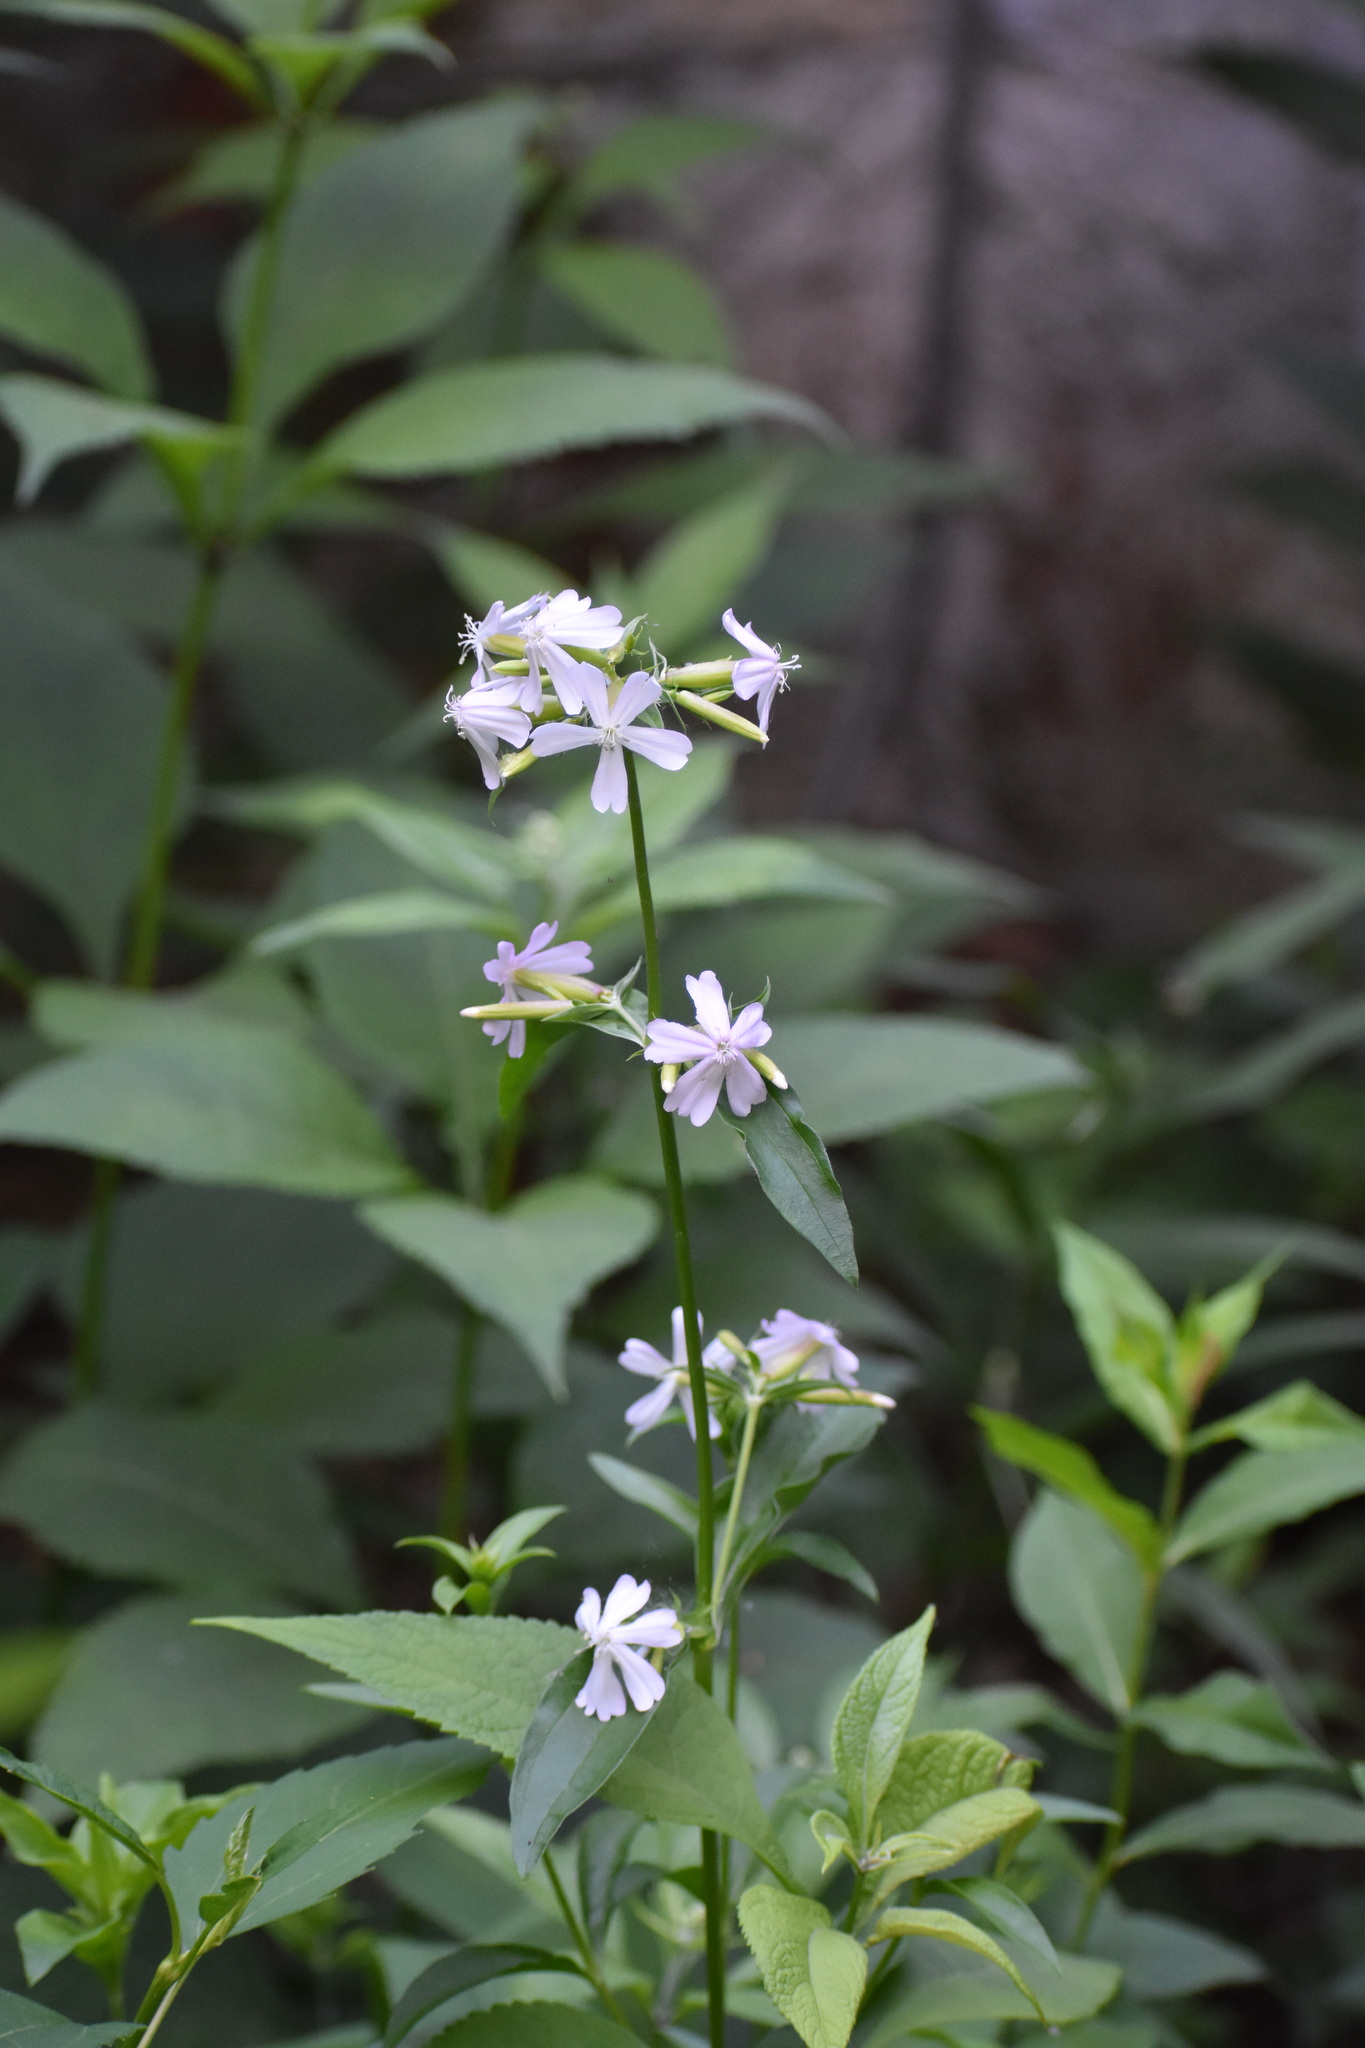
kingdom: Plantae
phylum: Tracheophyta
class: Magnoliopsida
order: Caryophyllales
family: Caryophyllaceae
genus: Saponaria
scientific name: Saponaria officinalis
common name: Soapwort
